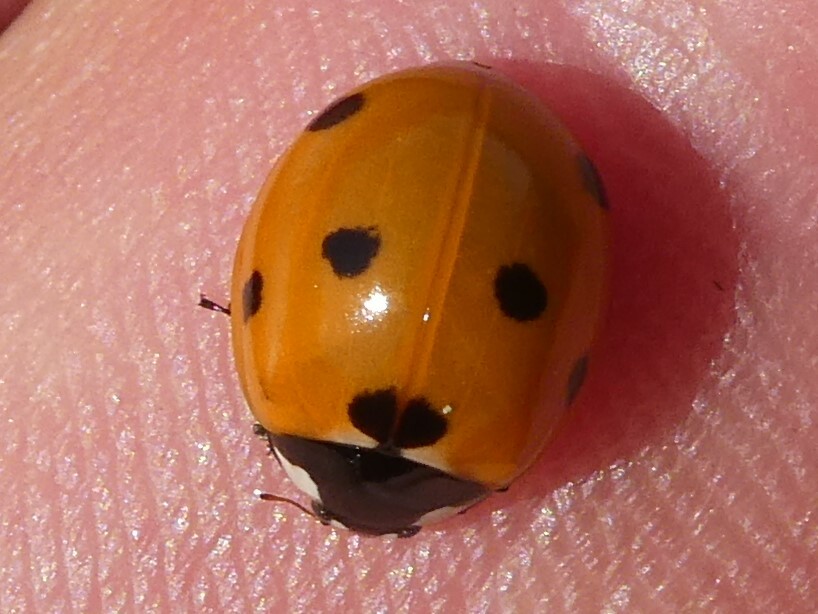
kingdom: Animalia
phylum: Arthropoda
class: Insecta
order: Coleoptera
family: Coccinellidae
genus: Coccinella
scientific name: Coccinella septempunctata
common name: Sevenspotted lady beetle
